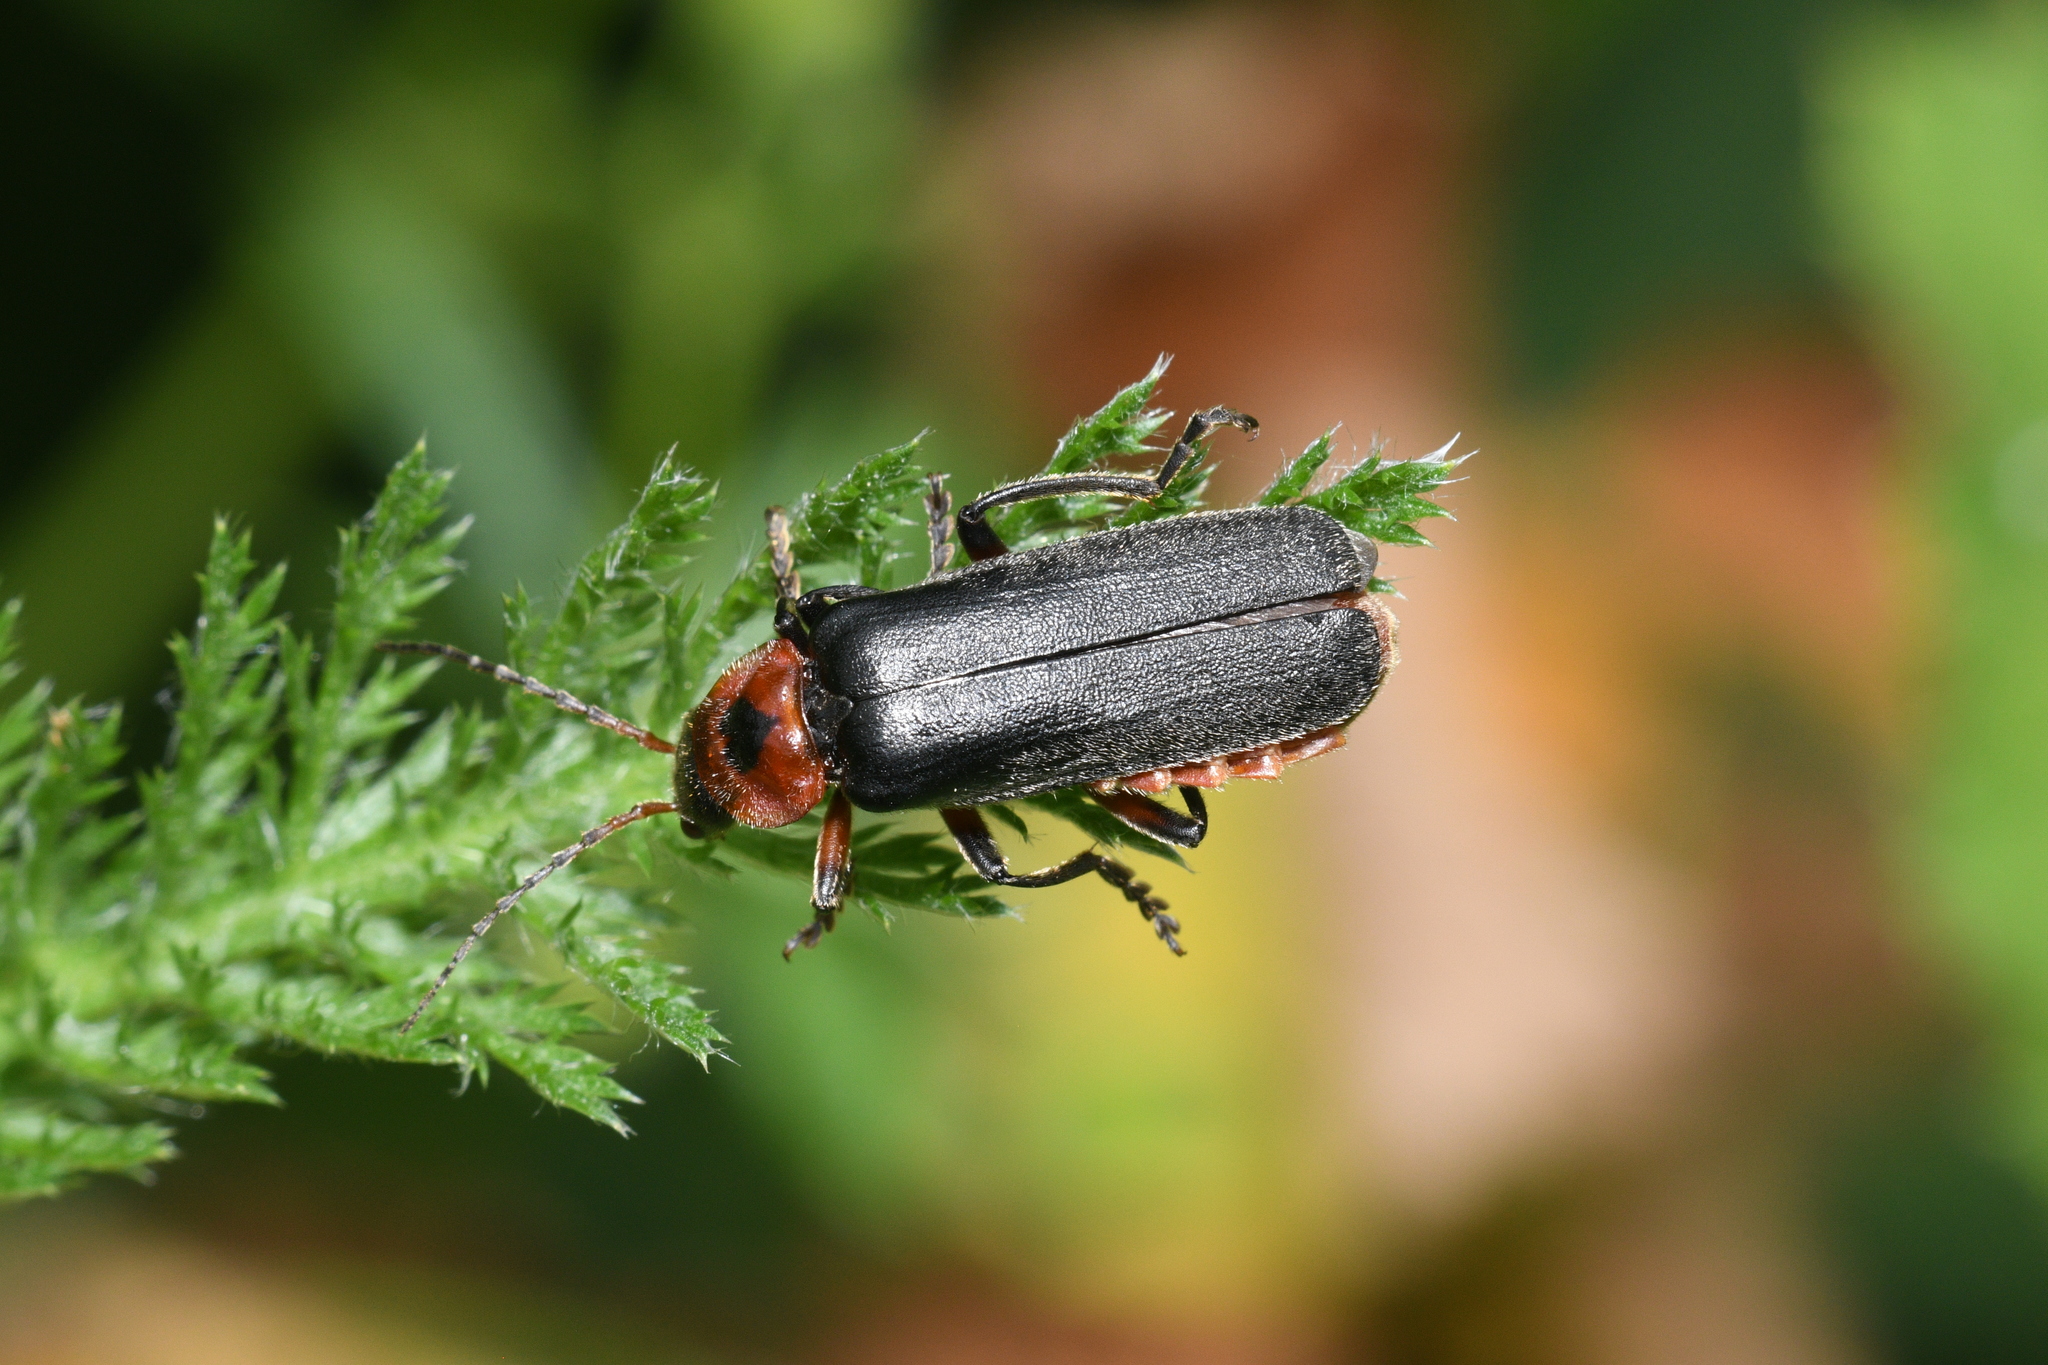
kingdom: Animalia
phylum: Arthropoda
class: Insecta
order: Coleoptera
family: Cantharidae
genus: Cantharis
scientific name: Cantharis rustica
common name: Soldier beetle
